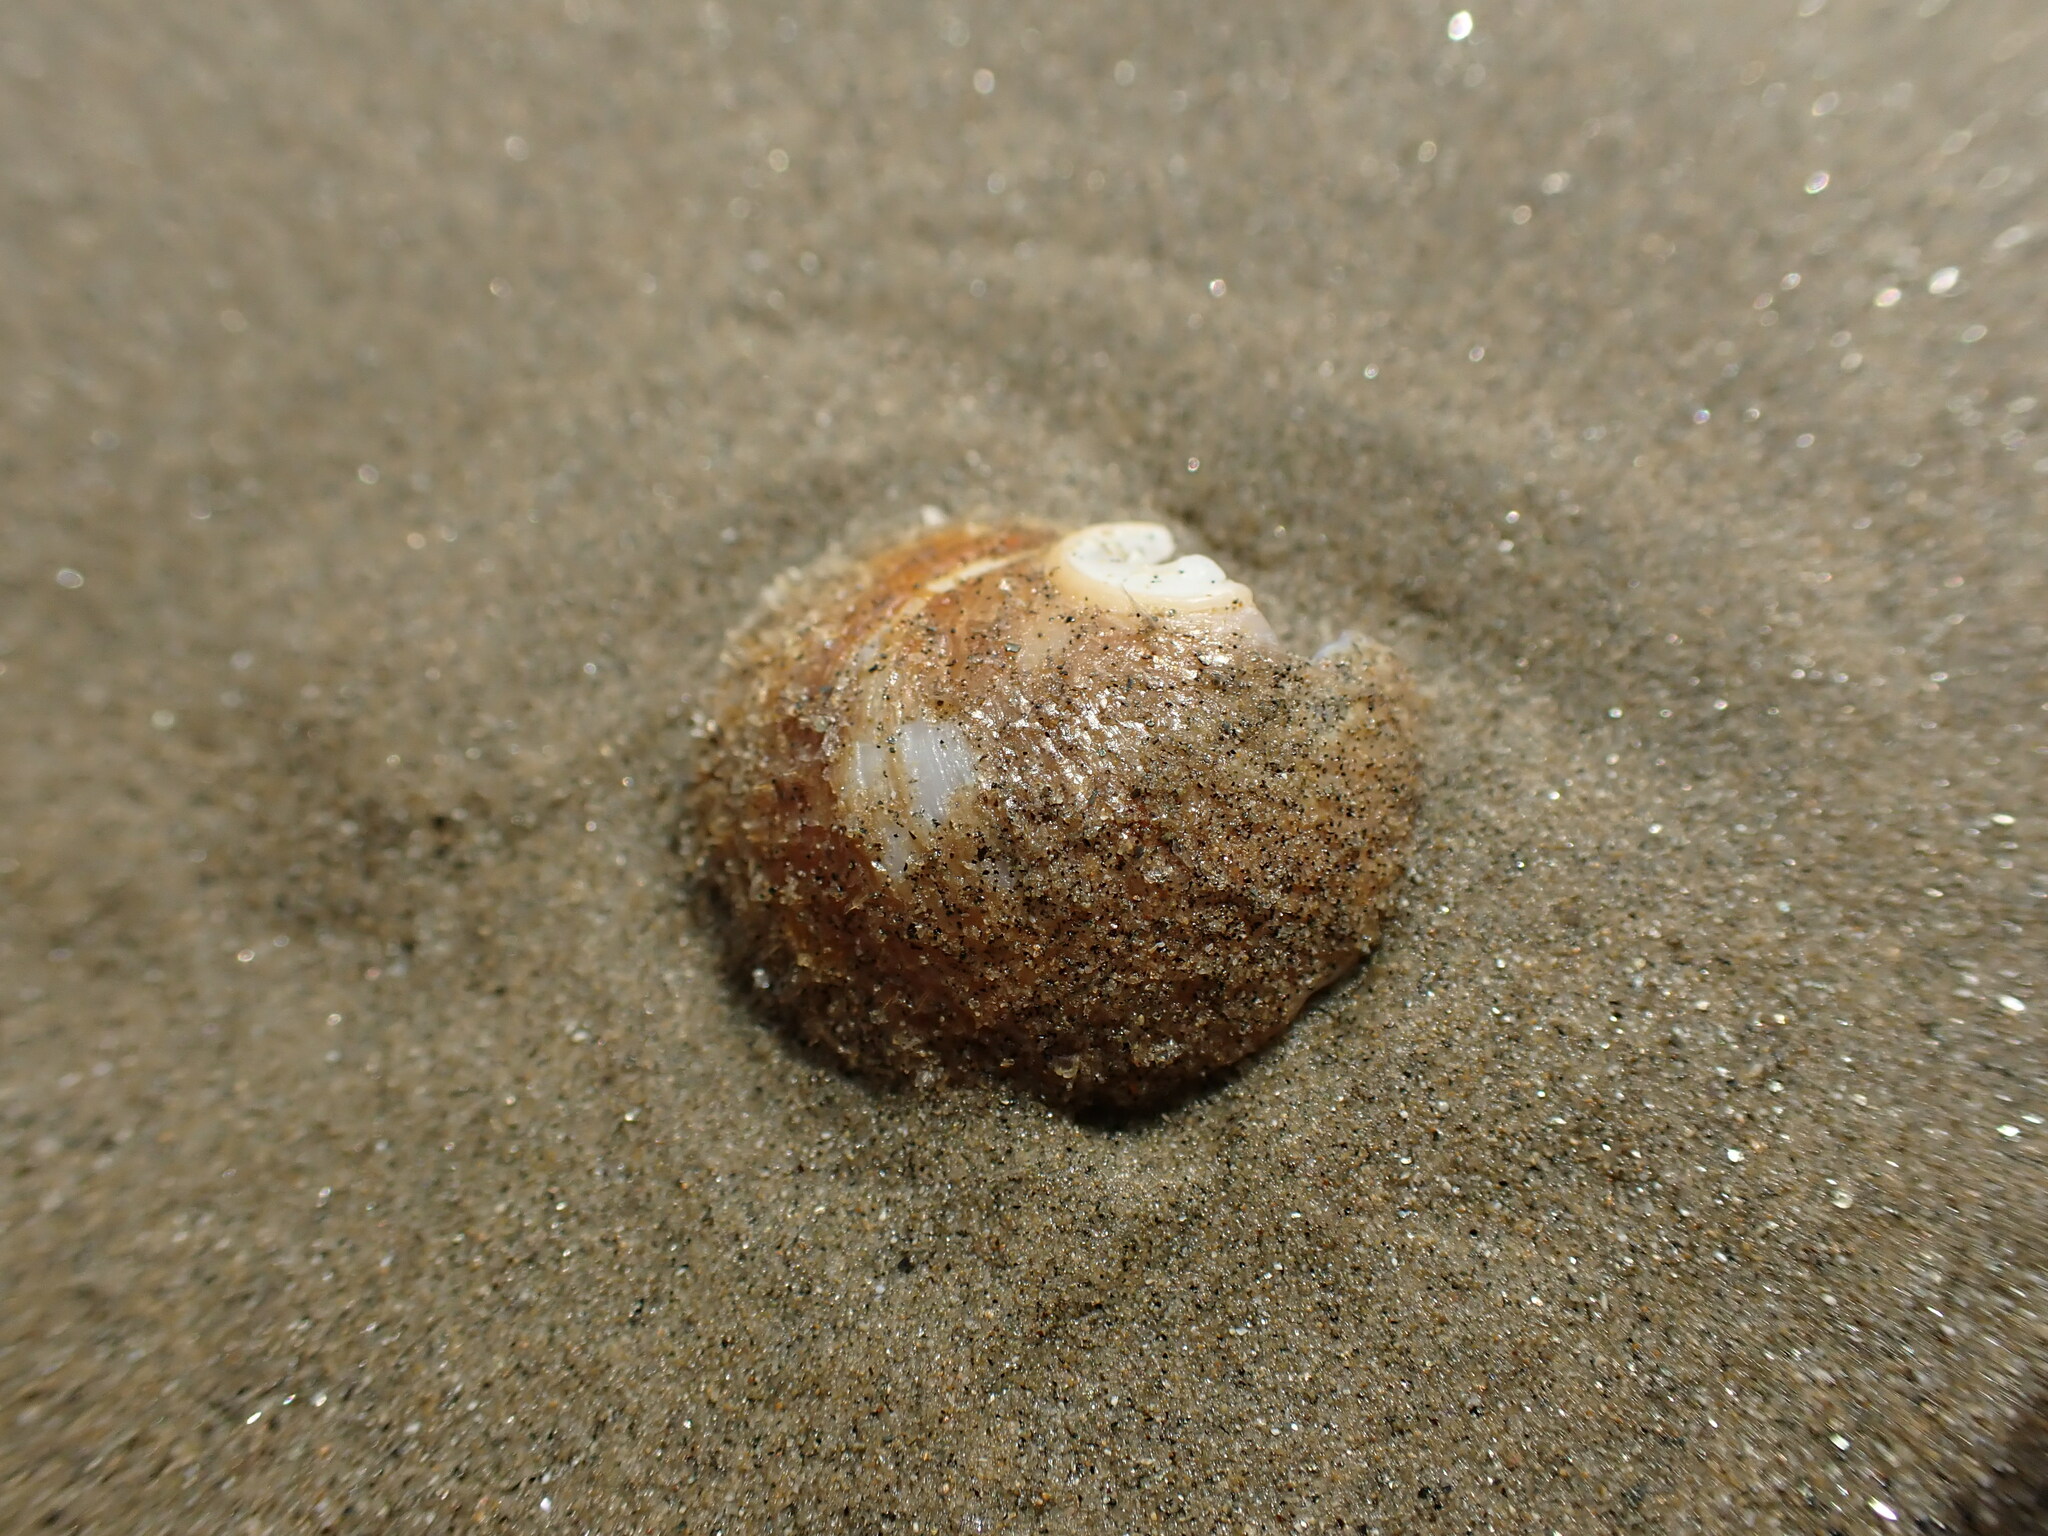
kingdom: Animalia
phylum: Mollusca
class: Gastropoda
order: Littorinimorpha
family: Calyptraeidae
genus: Sigapatella
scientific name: Sigapatella novaezelandiae
